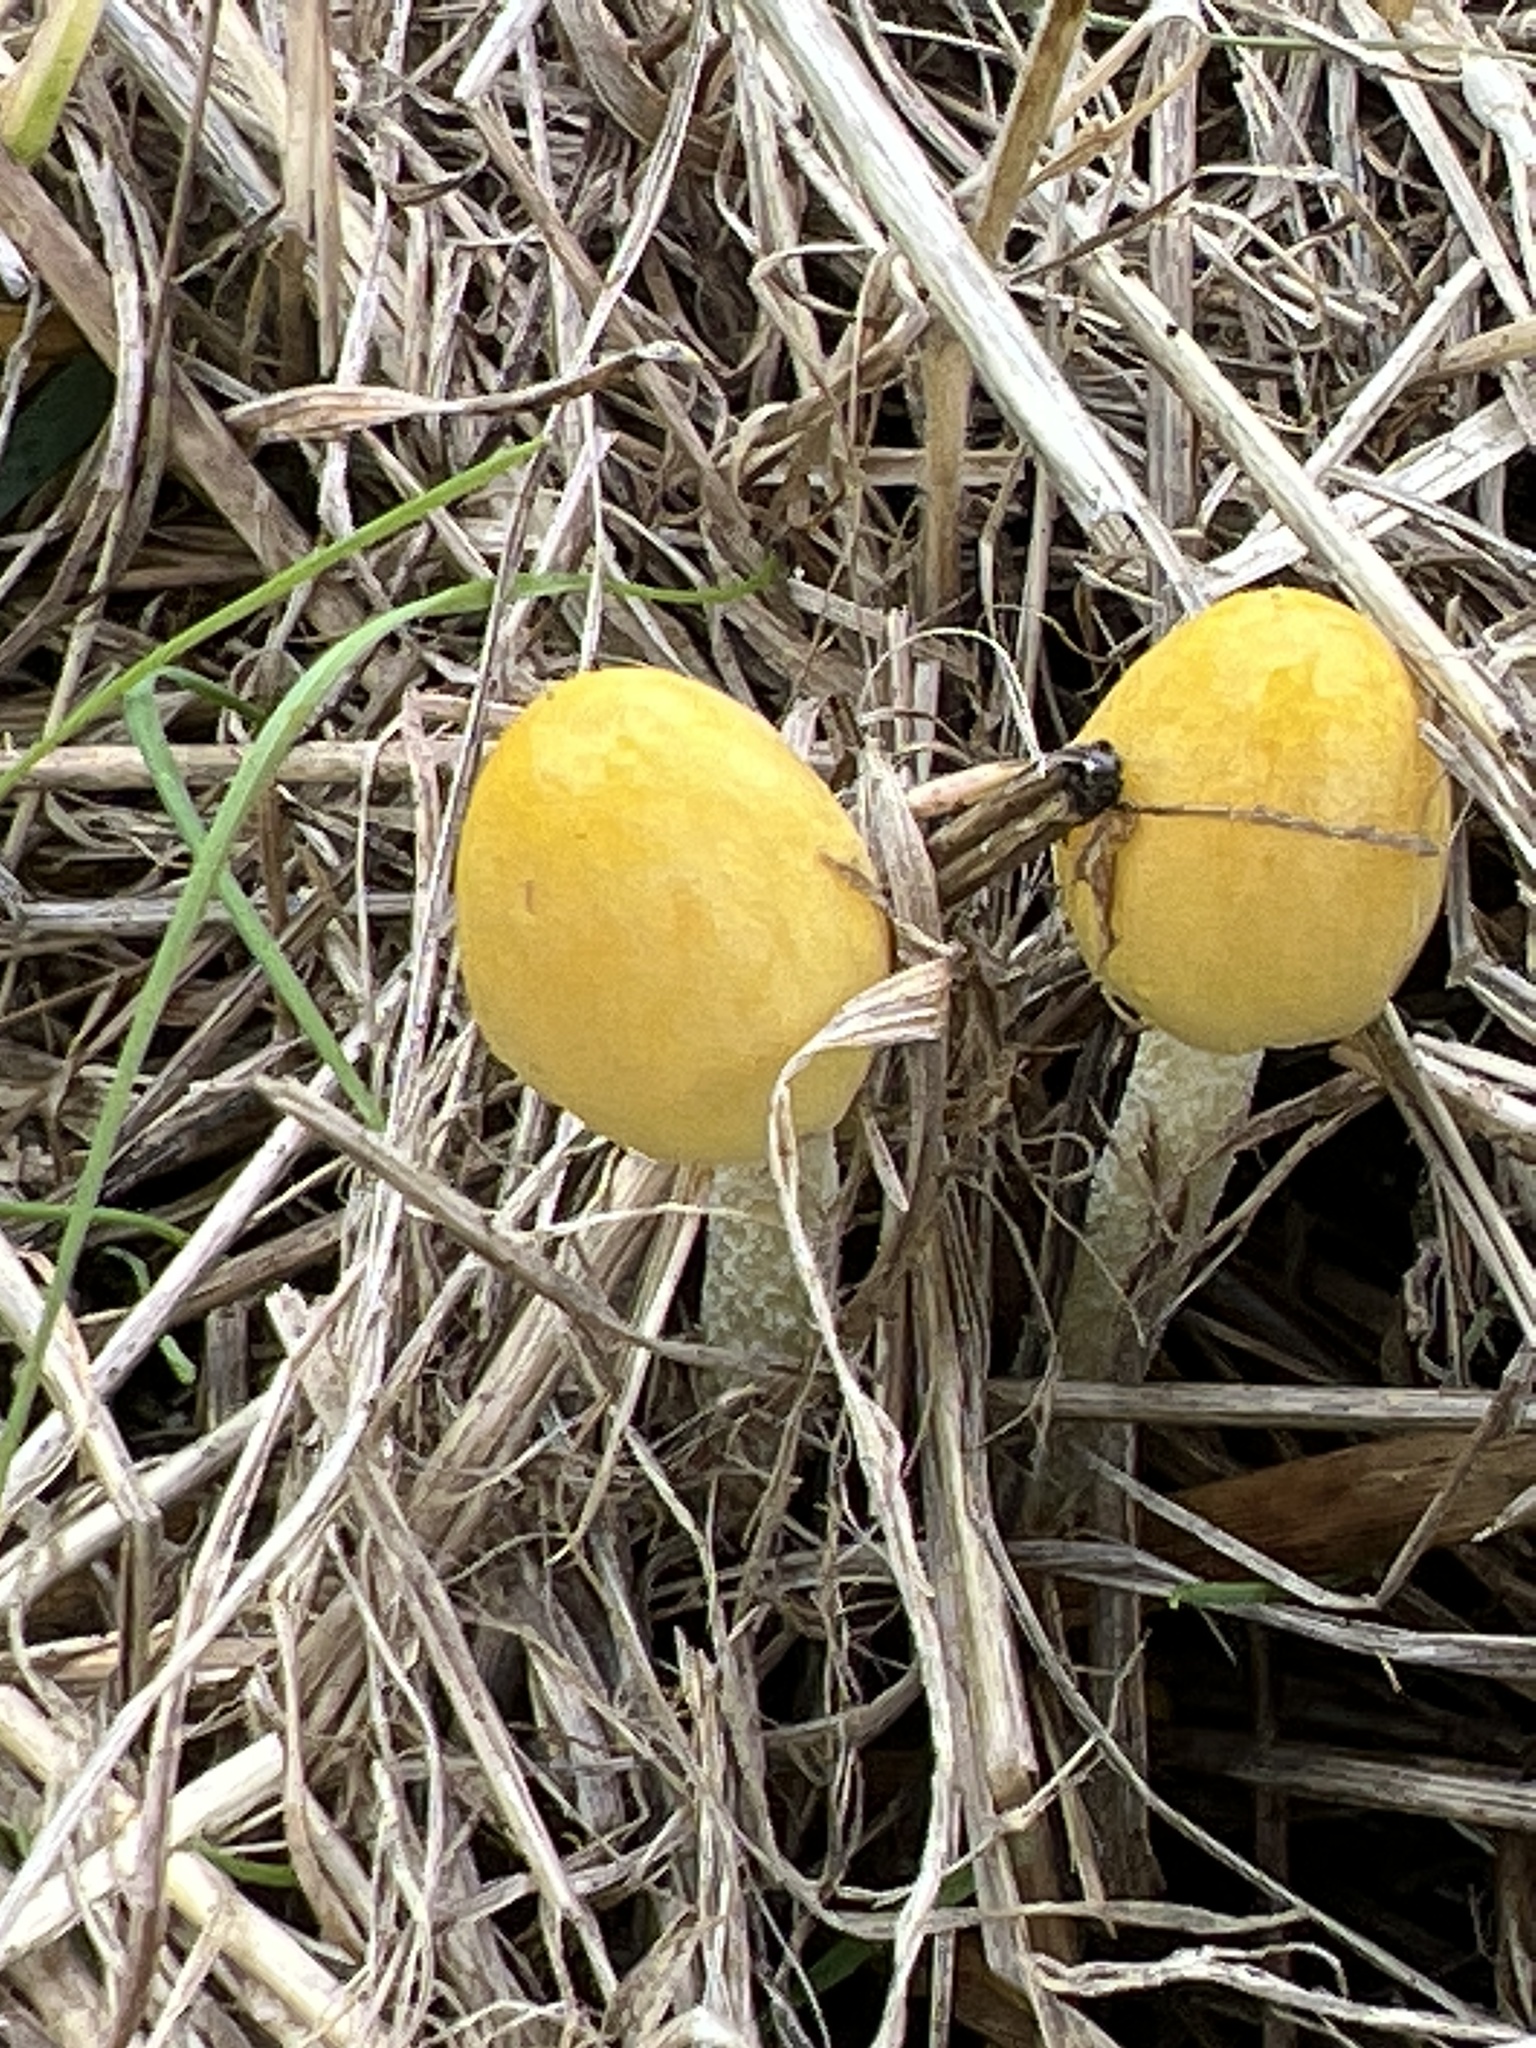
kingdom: Fungi
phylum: Basidiomycota
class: Agaricomycetes
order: Agaricales
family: Bolbitiaceae
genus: Bolbitius
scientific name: Bolbitius titubans
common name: Yellow fieldcap
